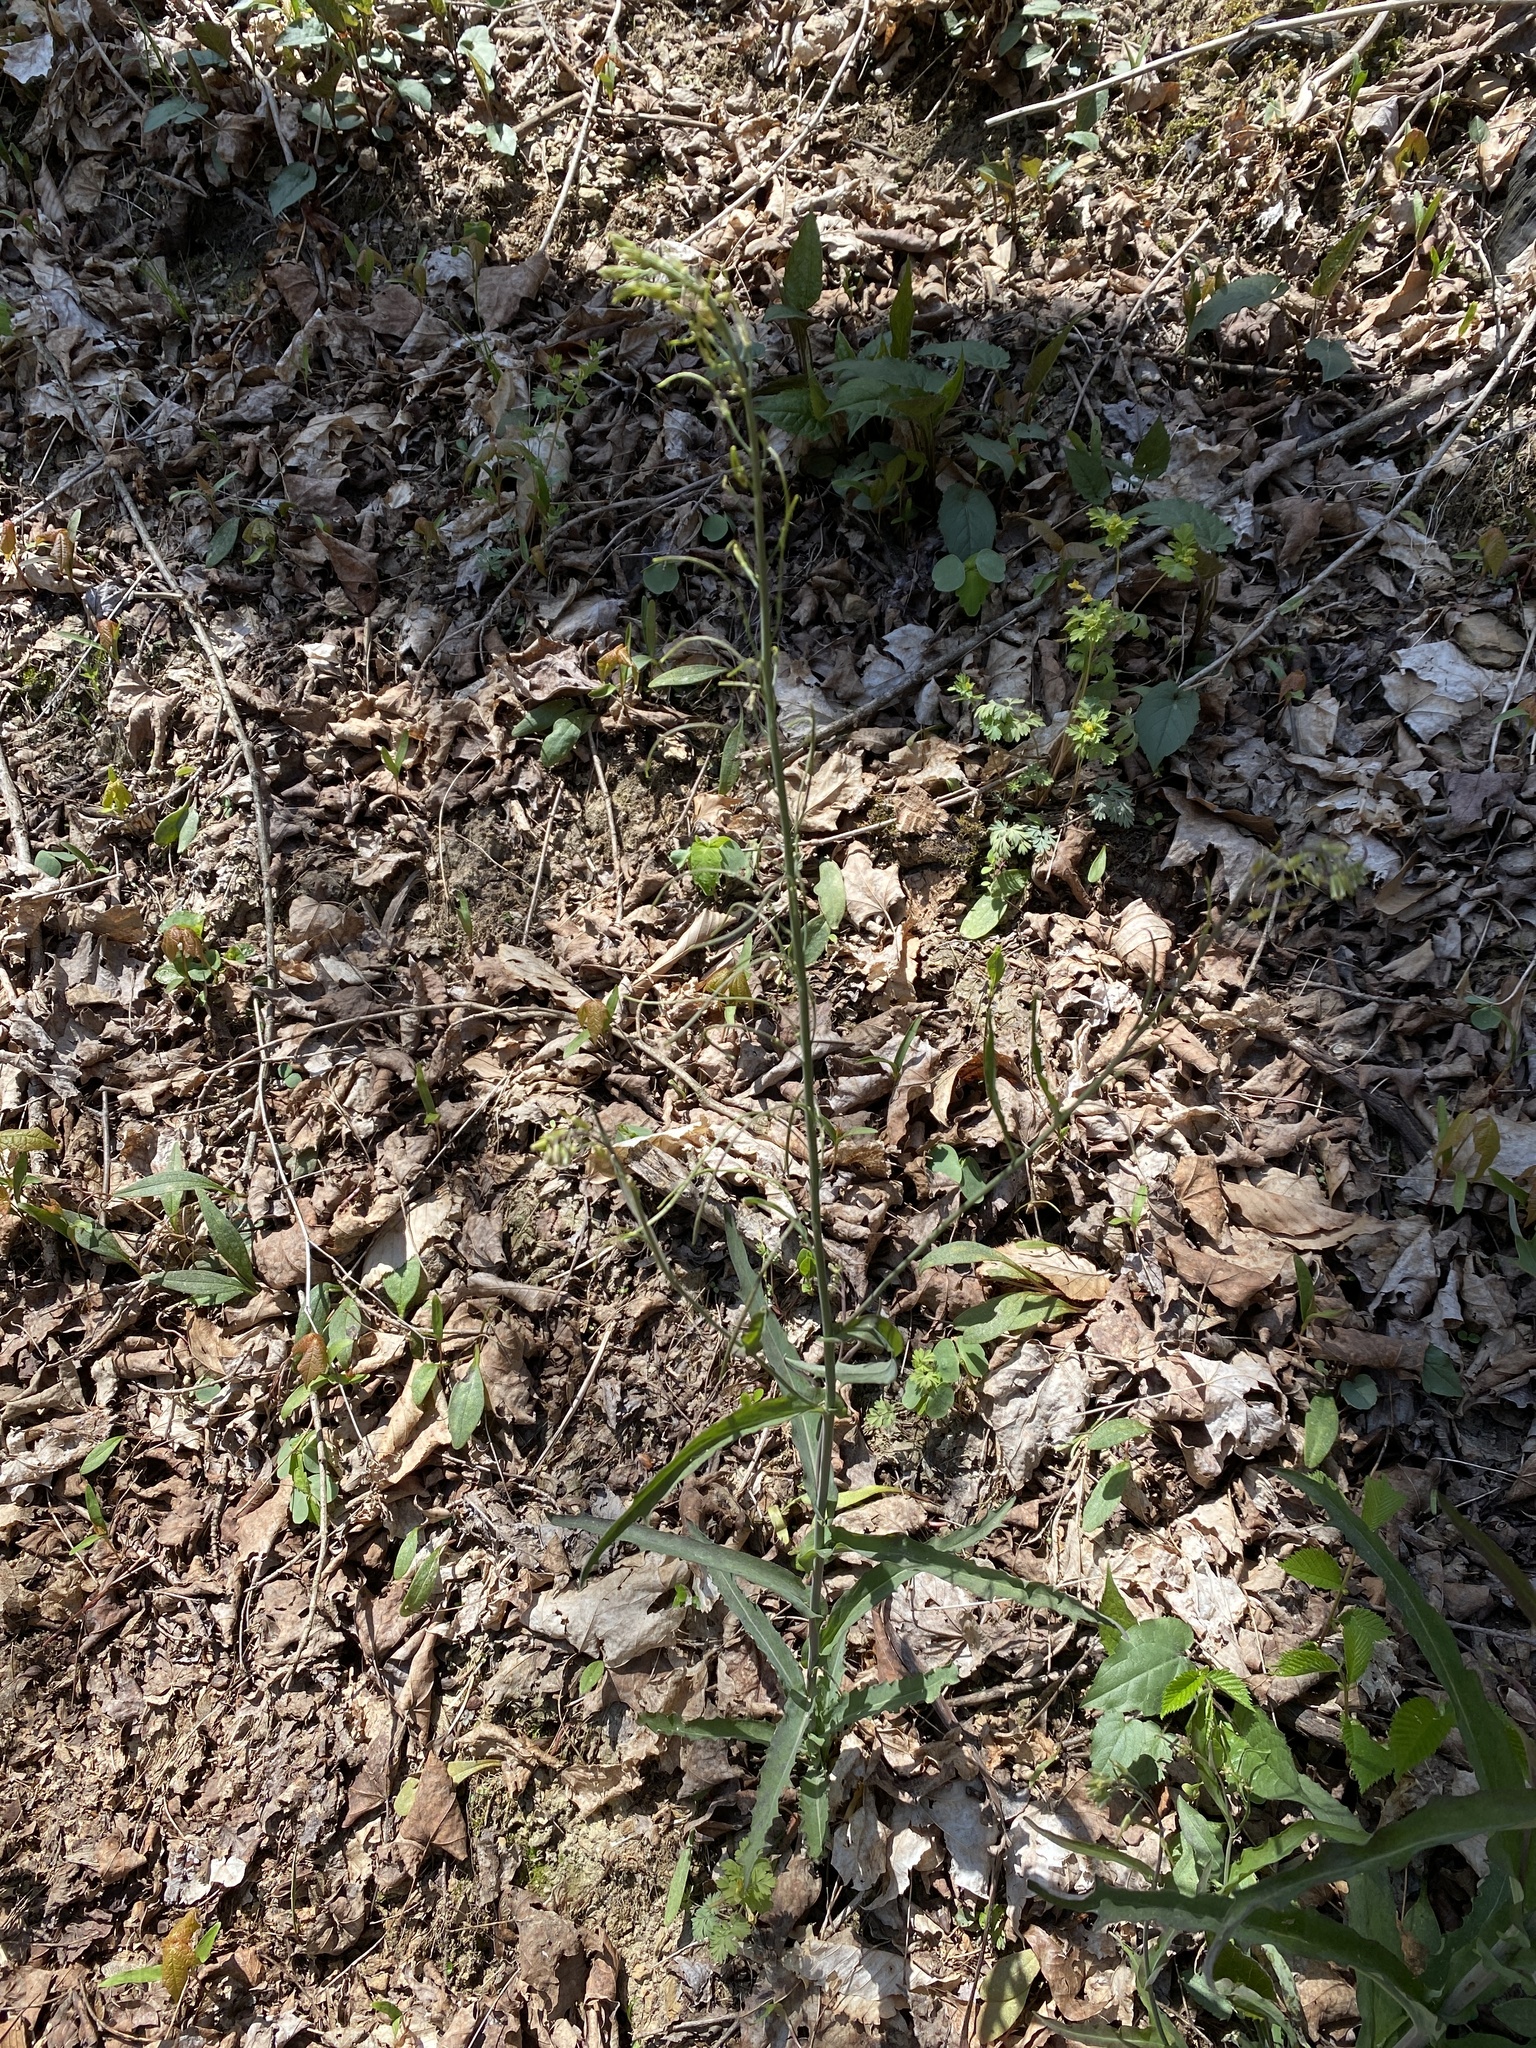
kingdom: Plantae
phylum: Tracheophyta
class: Magnoliopsida
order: Brassicales
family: Brassicaceae
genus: Borodinia
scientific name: Borodinia laevigata
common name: Smooth rockcress
